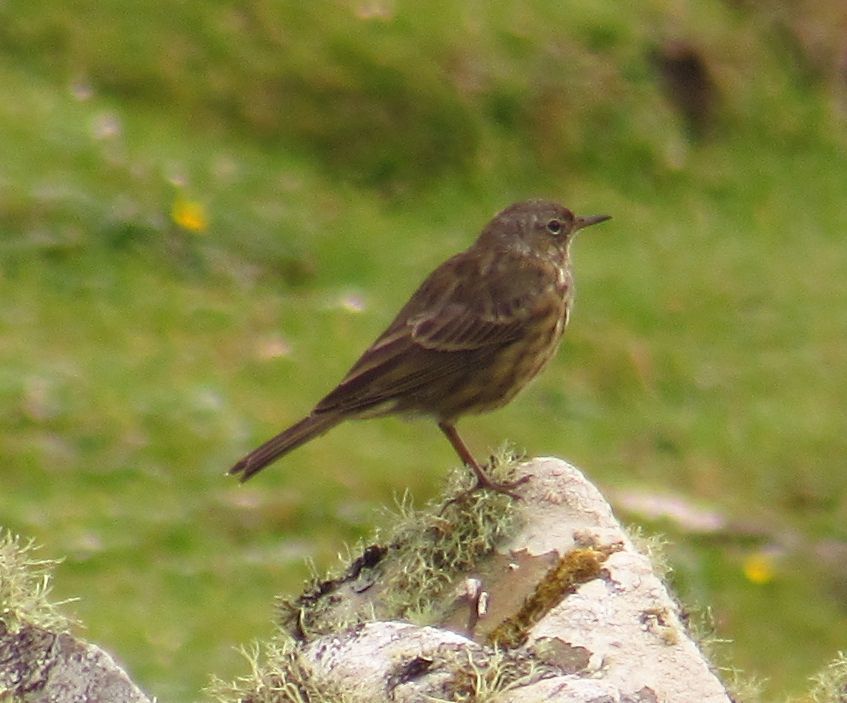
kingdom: Animalia
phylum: Chordata
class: Aves
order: Passeriformes
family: Motacillidae
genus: Anthus
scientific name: Anthus petrosus
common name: Eurasian rock pipit
